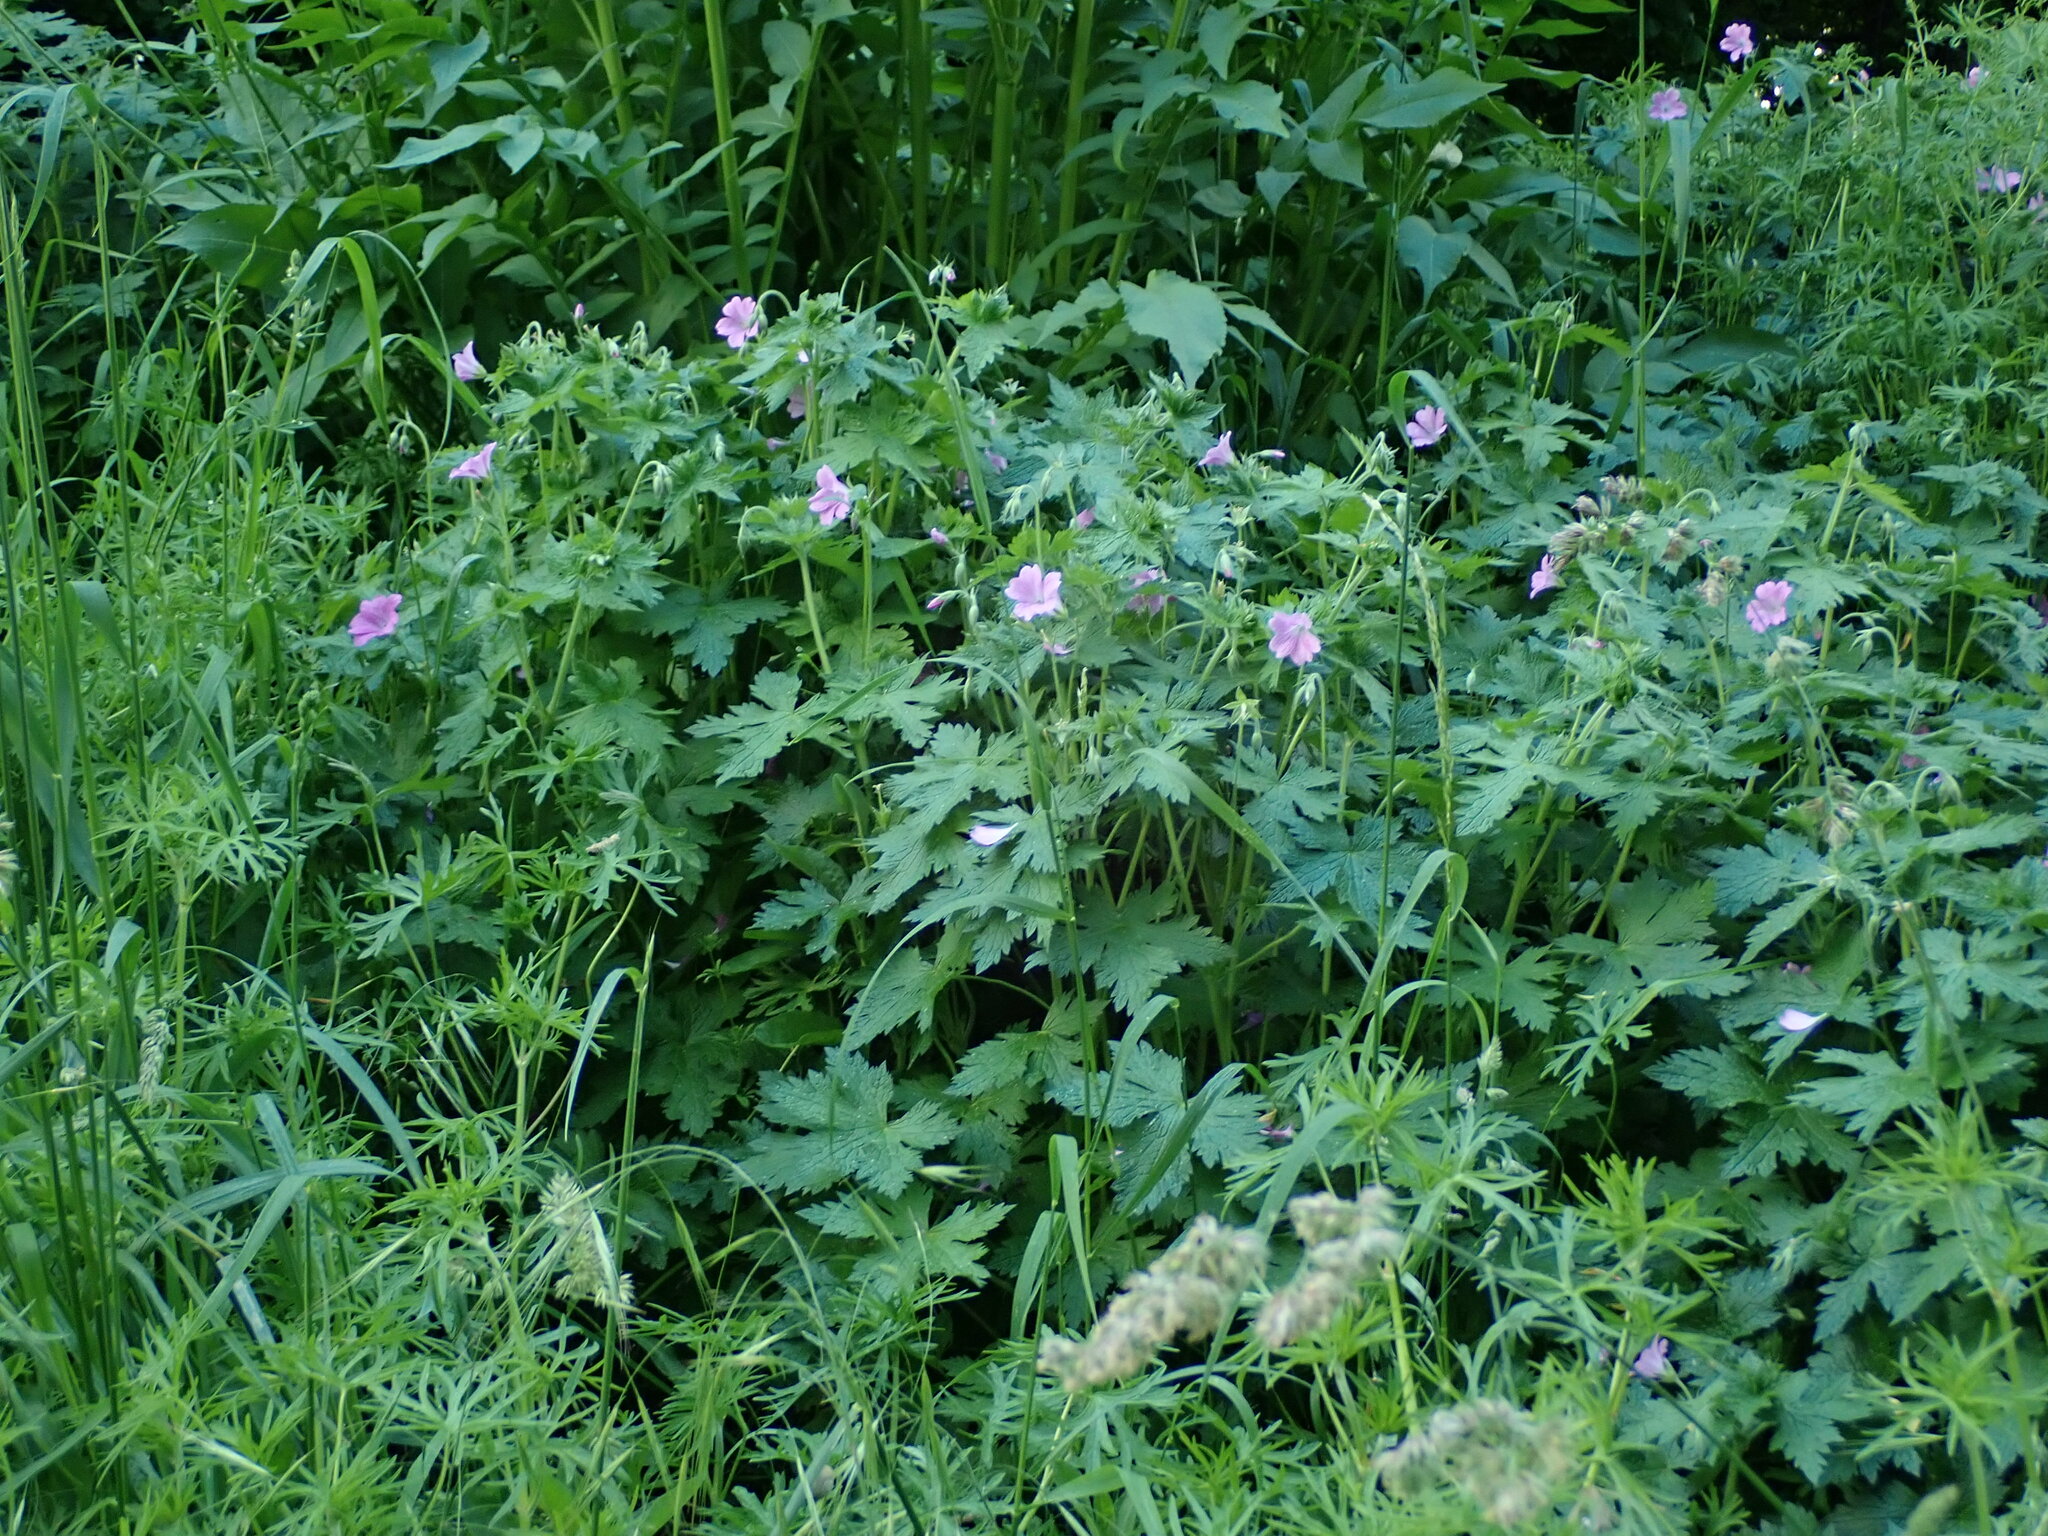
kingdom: Plantae
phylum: Tracheophyta
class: Magnoliopsida
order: Geraniales
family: Geraniaceae
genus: Geranium
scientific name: Geranium oxonianum
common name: Druce's crane's-bill
